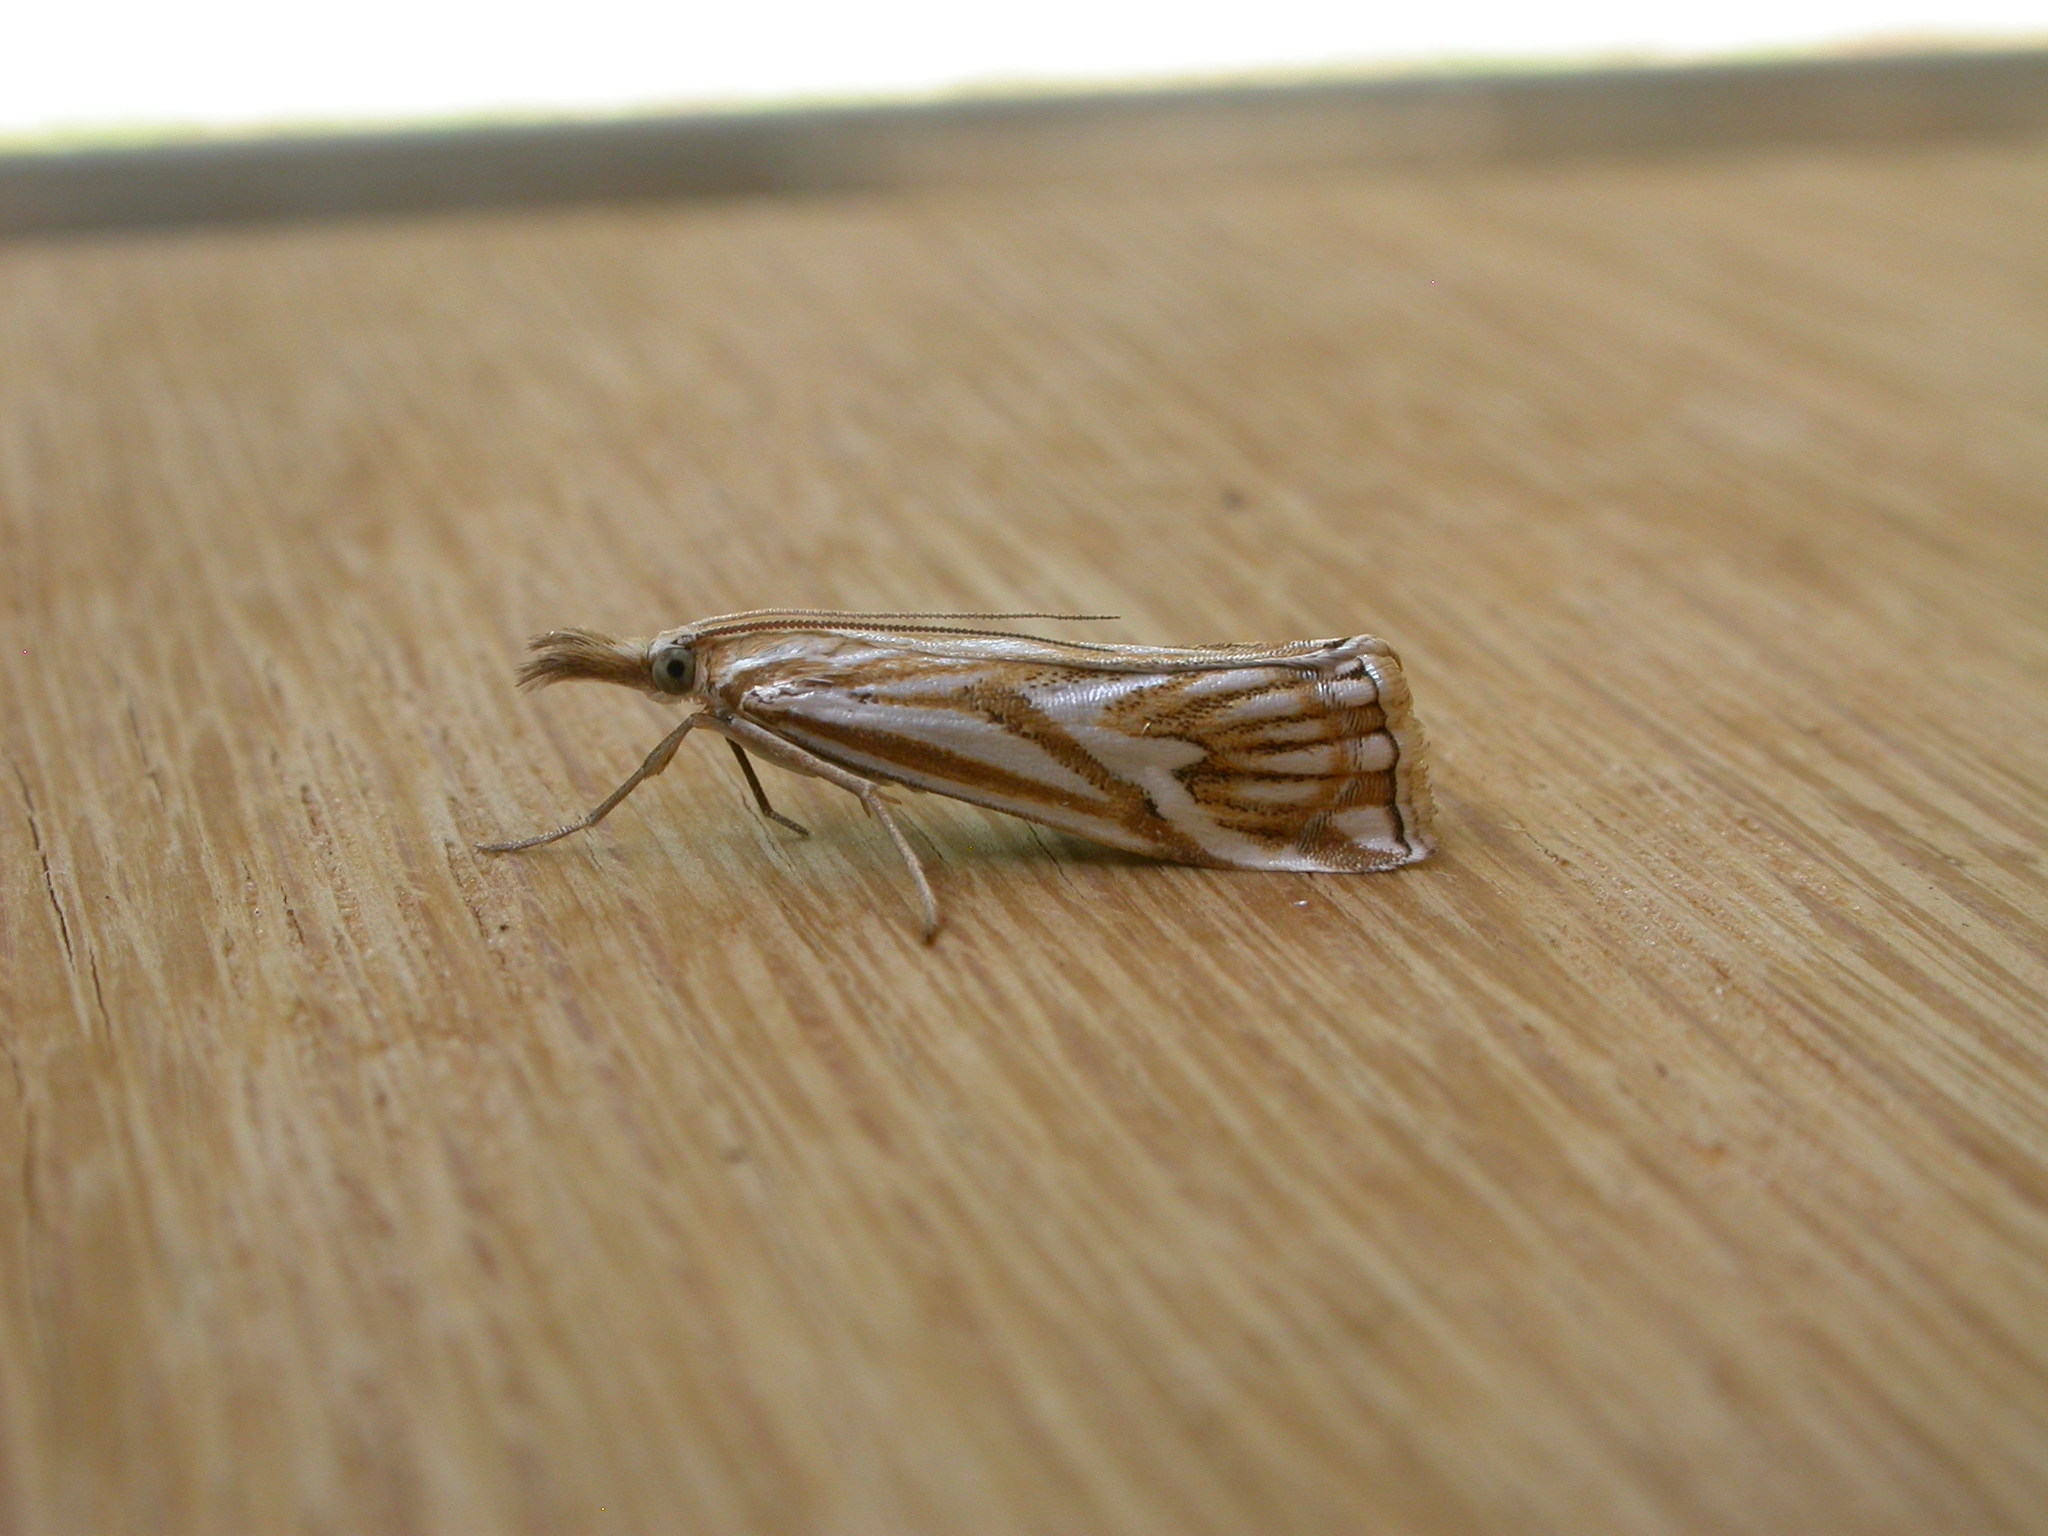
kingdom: Animalia
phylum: Arthropoda
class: Insecta
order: Lepidoptera
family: Crambidae
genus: Hednota
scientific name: Hednota pleniferellus
